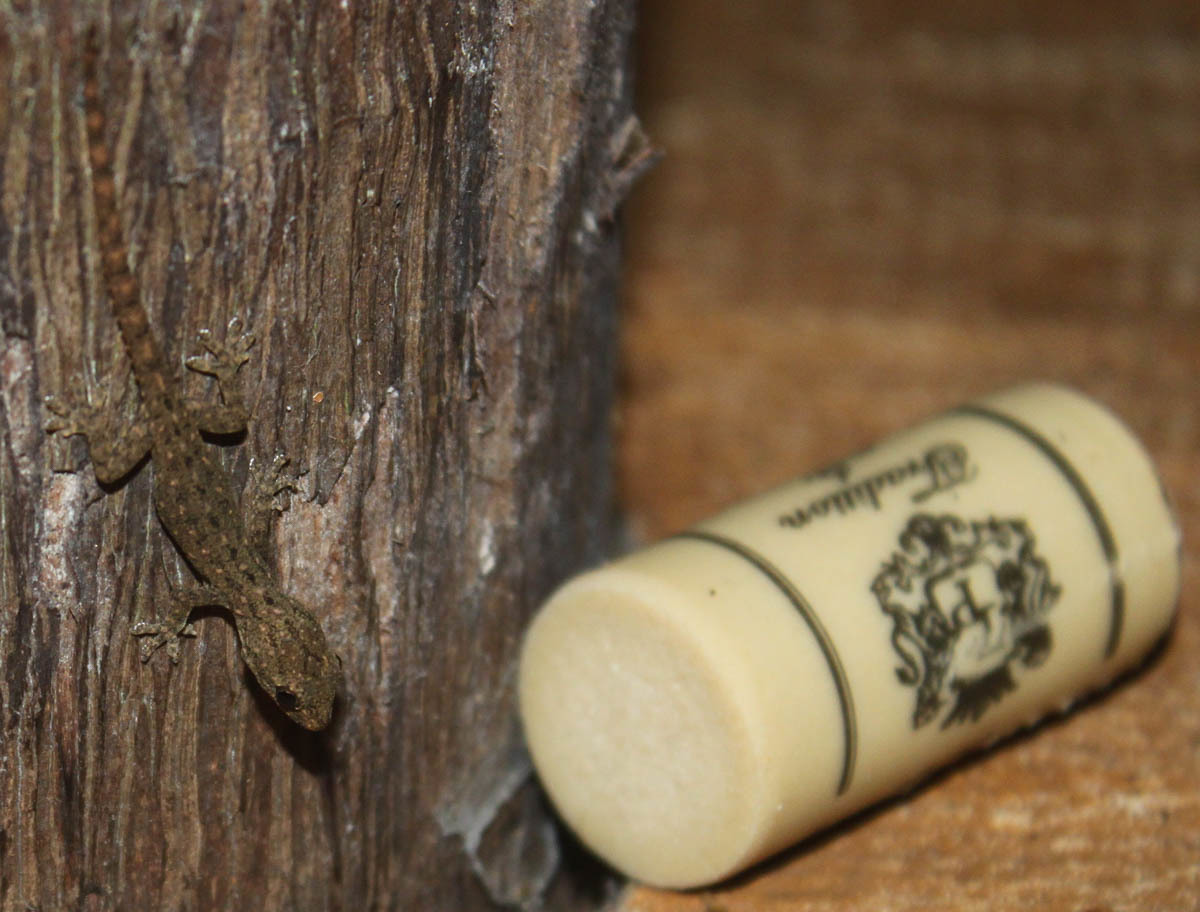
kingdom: Animalia
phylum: Chordata
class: Squamata
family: Gekkonidae
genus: Hemidactylus
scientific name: Hemidactylus frenatus
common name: Common house gecko
